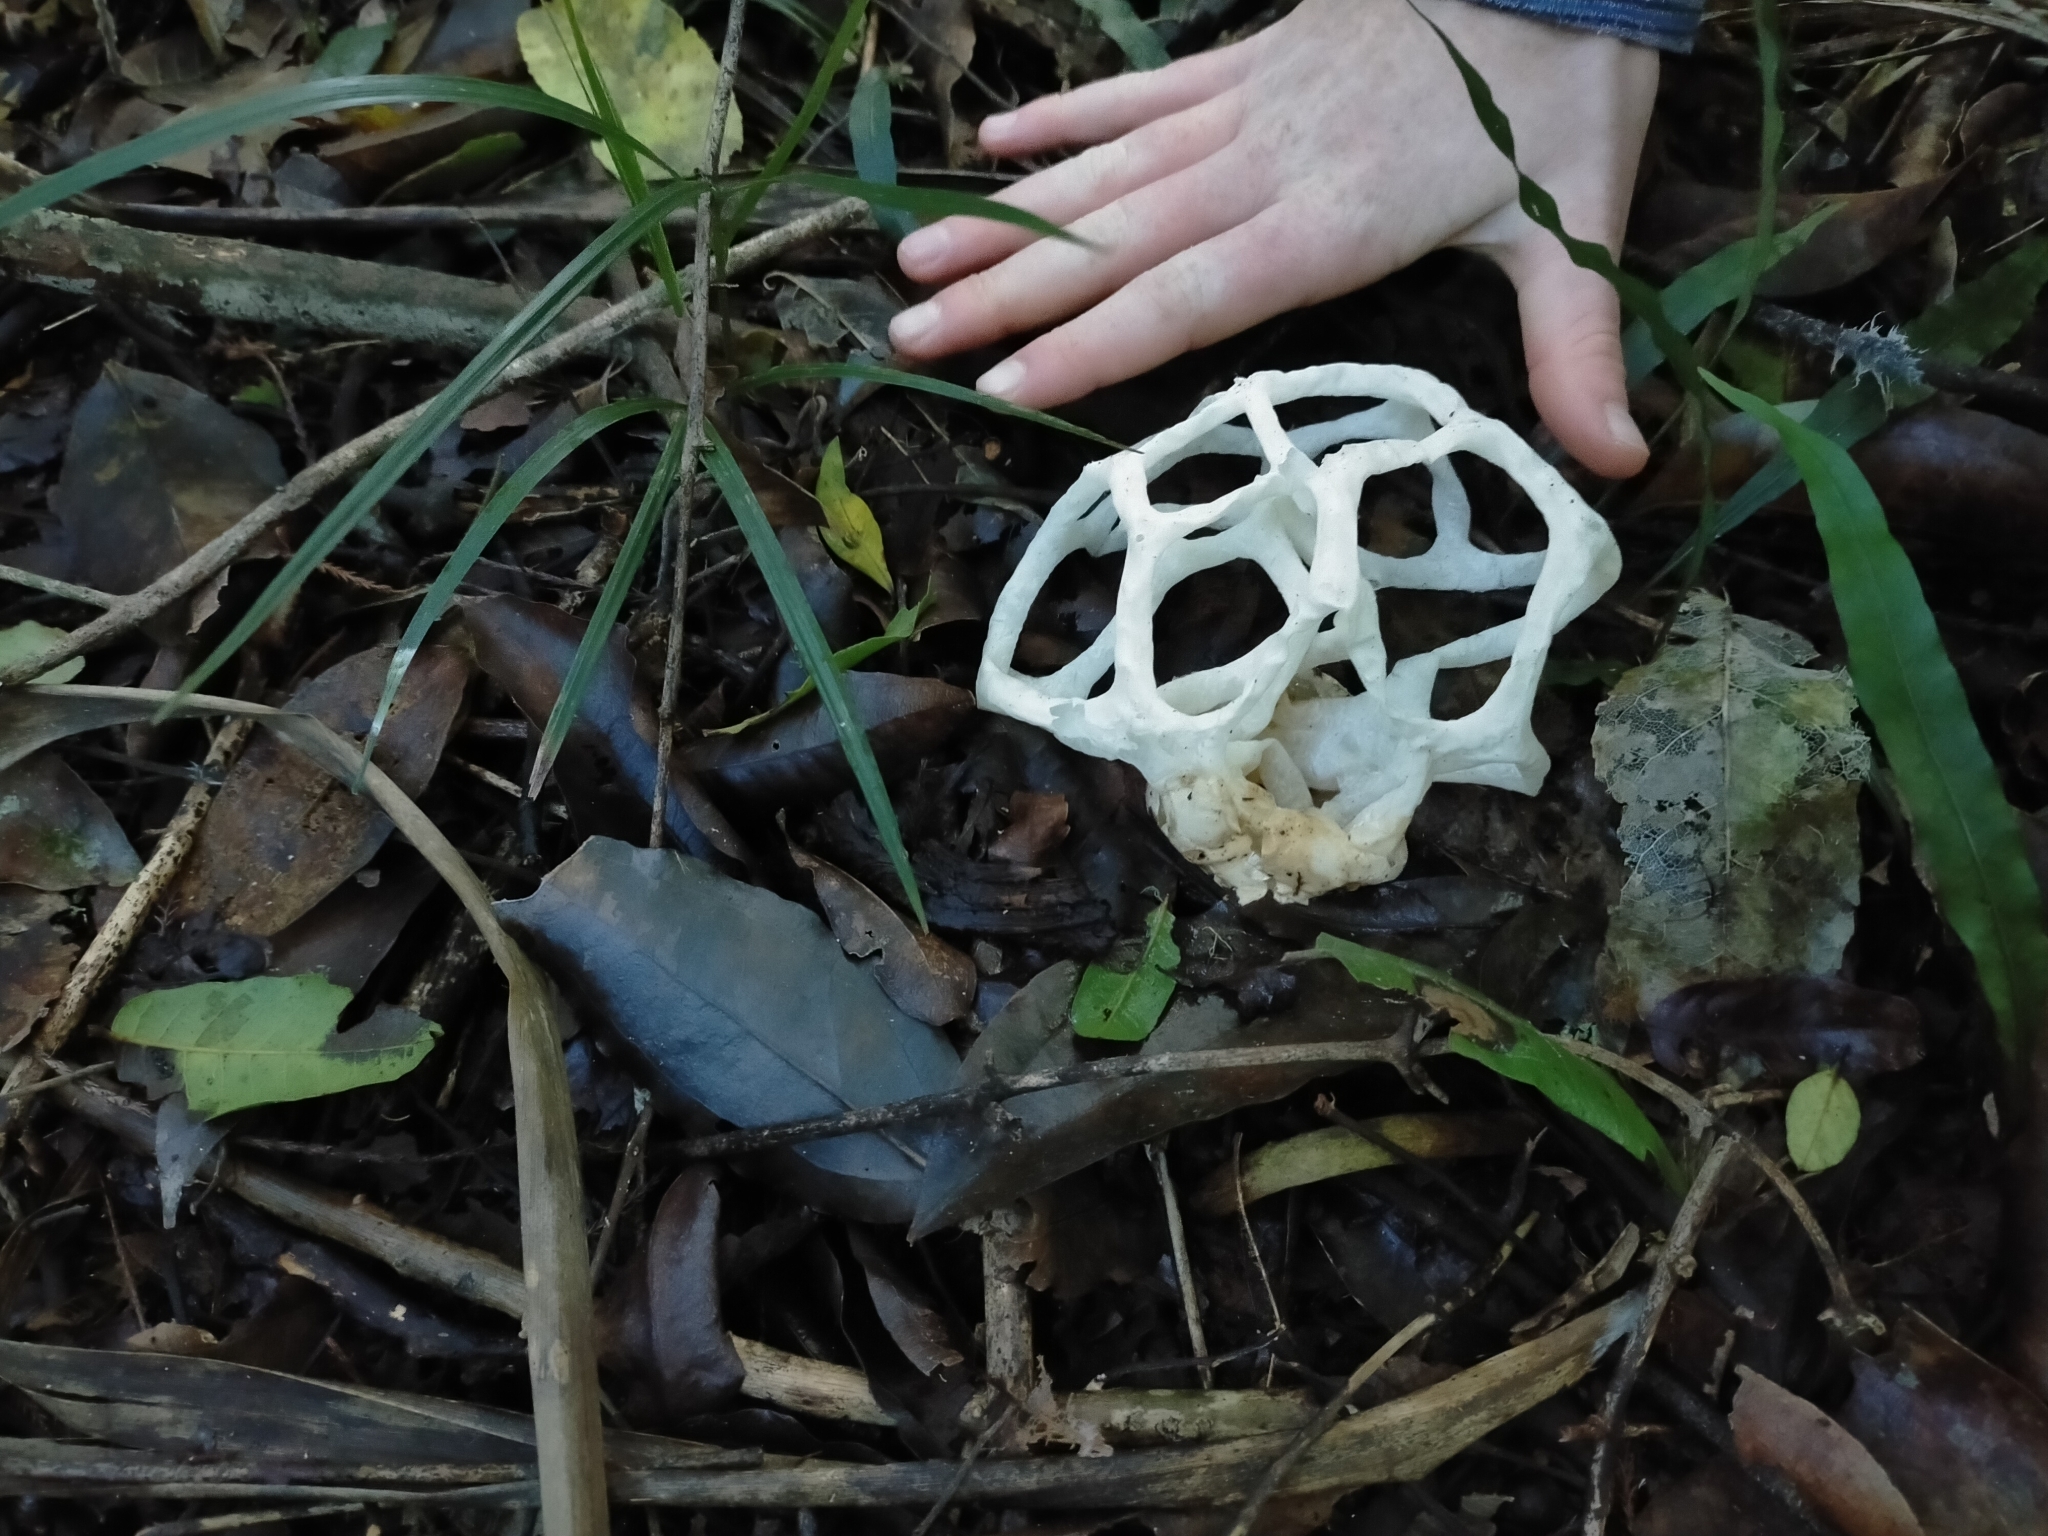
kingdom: Fungi
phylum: Basidiomycota
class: Agaricomycetes
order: Phallales
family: Phallaceae
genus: Ileodictyon
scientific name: Ileodictyon cibarium
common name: Basket fungus
